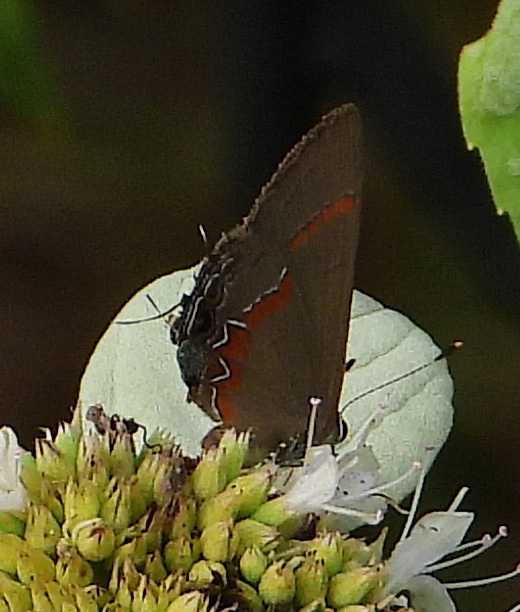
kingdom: Animalia
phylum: Arthropoda
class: Insecta
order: Lepidoptera
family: Lycaenidae
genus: Calycopis
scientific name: Calycopis cecrops
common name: Red-banded hairstreak
